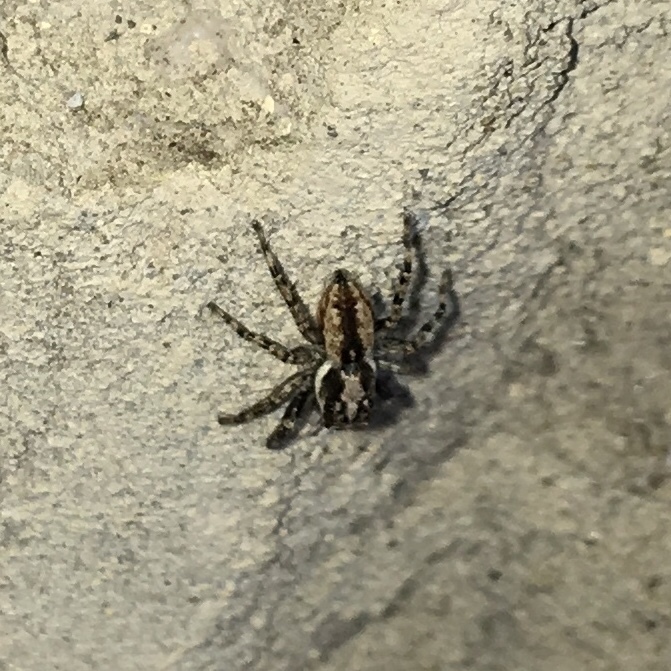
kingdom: Animalia
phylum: Arthropoda
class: Arachnida
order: Araneae
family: Salticidae
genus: Menemerus
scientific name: Menemerus bivittatus
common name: Gray wall jumper
